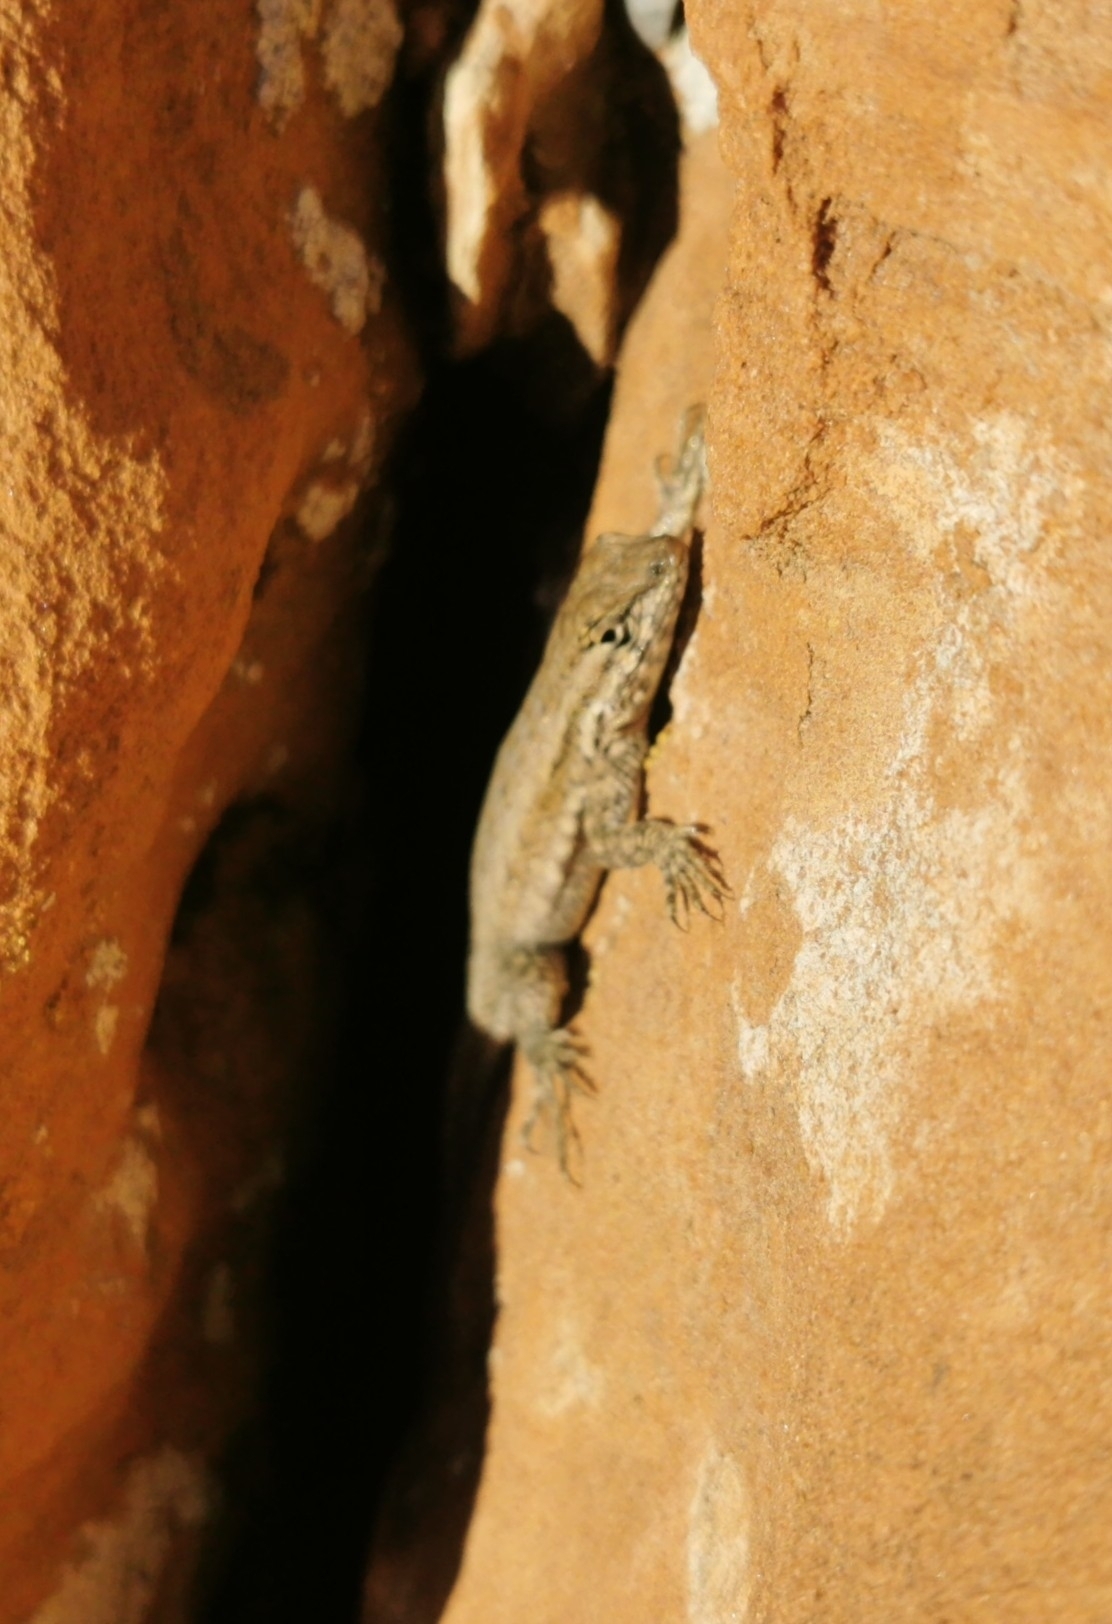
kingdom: Animalia
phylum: Chordata
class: Squamata
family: Phrynosomatidae
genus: Uta
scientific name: Uta stansburiana
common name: Side-blotched lizard
